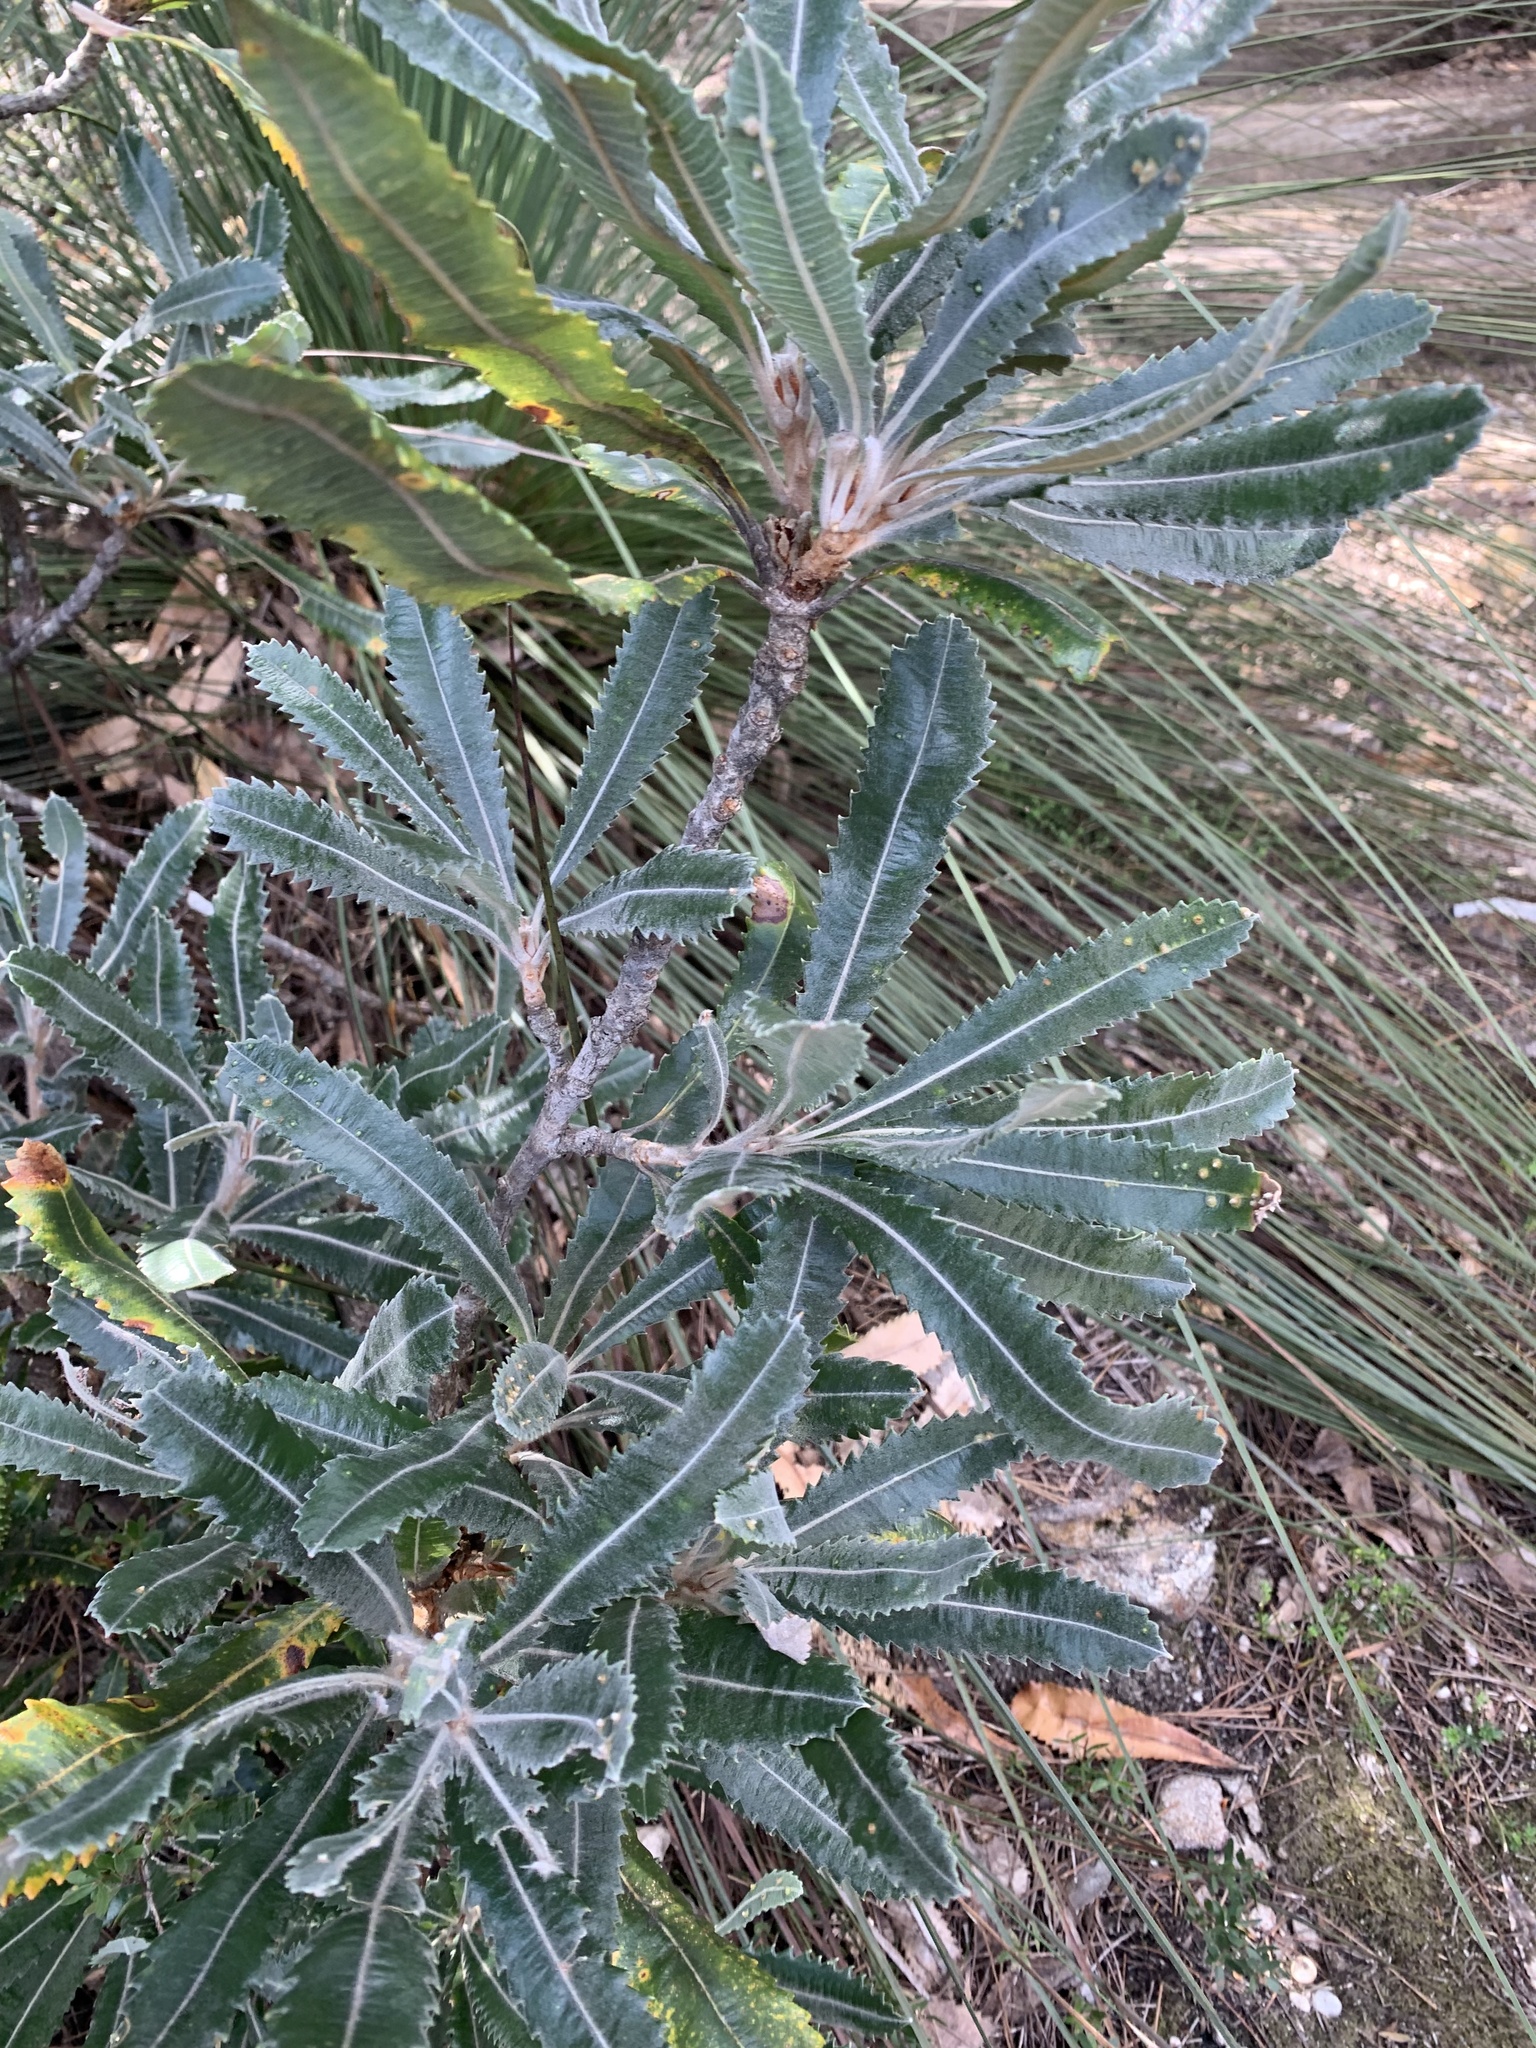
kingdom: Plantae
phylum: Tracheophyta
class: Magnoliopsida
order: Proteales
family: Proteaceae
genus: Banksia
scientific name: Banksia serrata
